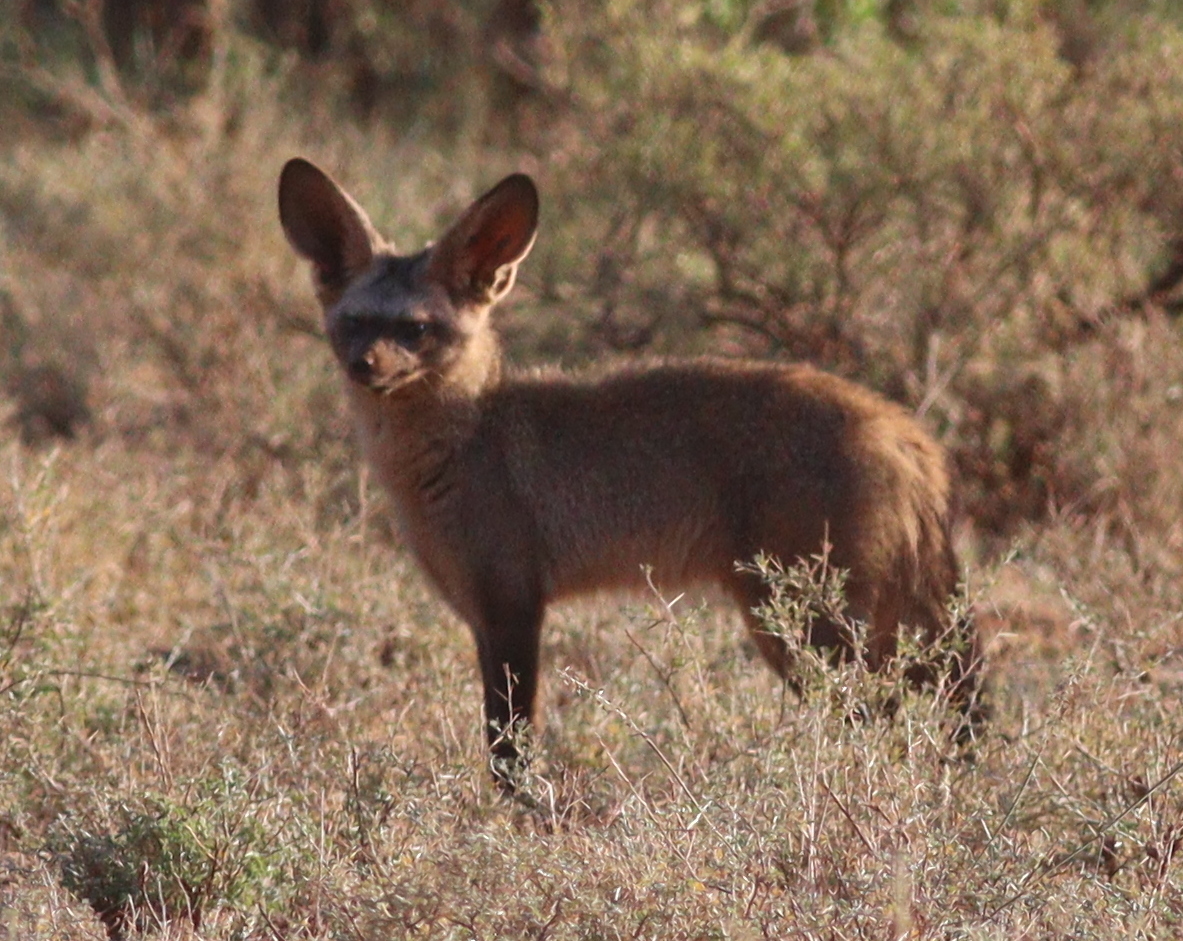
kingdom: Animalia
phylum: Chordata
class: Mammalia
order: Carnivora
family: Canidae
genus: Otocyon
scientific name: Otocyon megalotis
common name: Bat-eared fox
